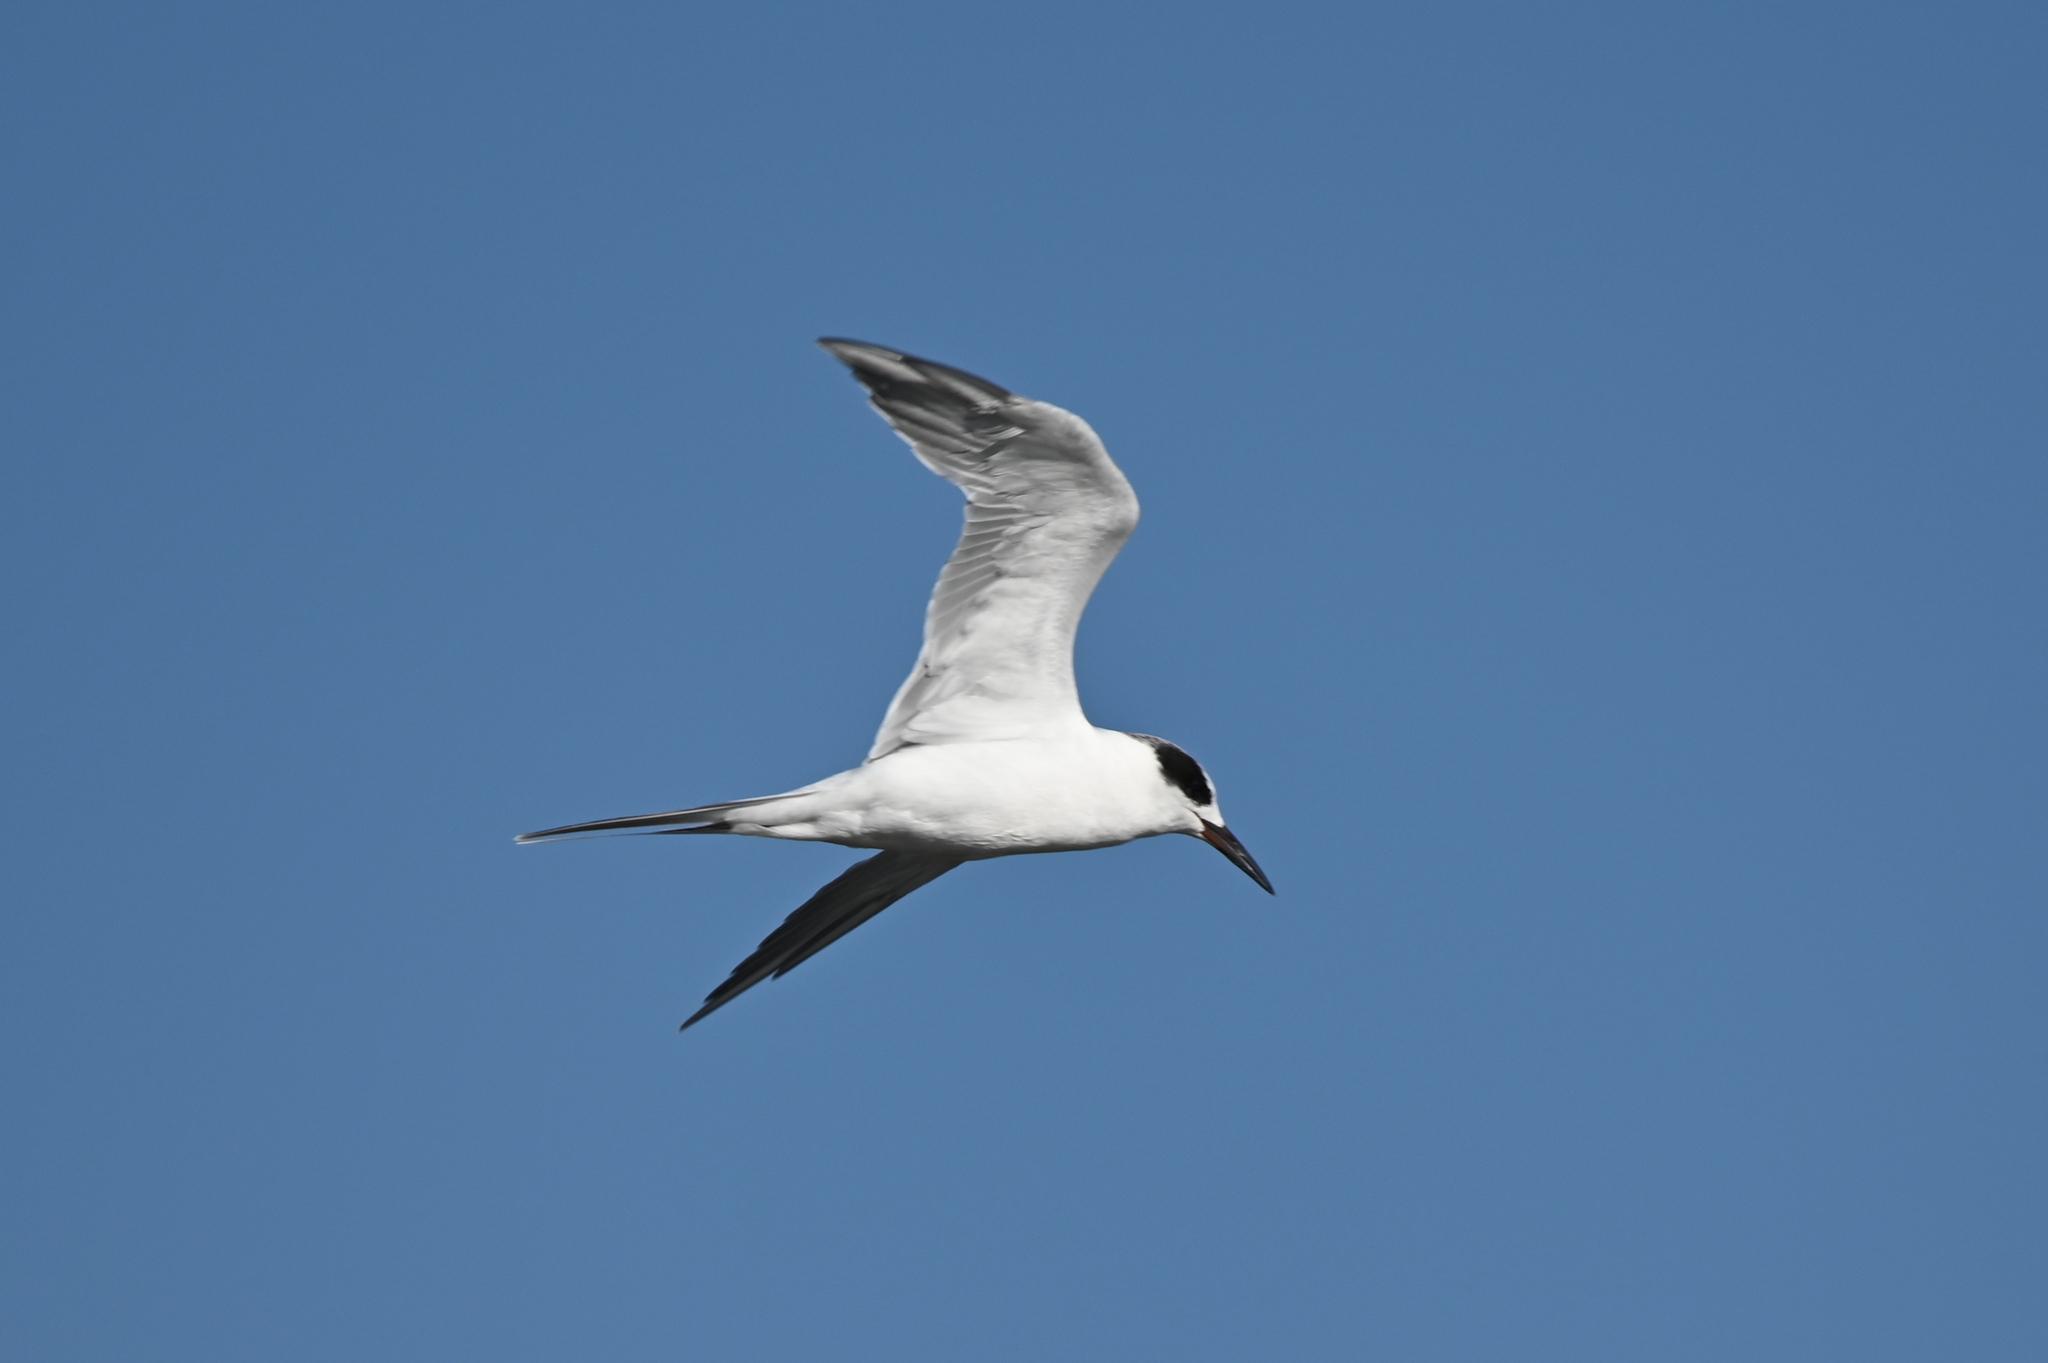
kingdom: Animalia
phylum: Chordata
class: Aves
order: Charadriiformes
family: Laridae
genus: Sterna
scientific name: Sterna forsteri
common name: Forster's tern
